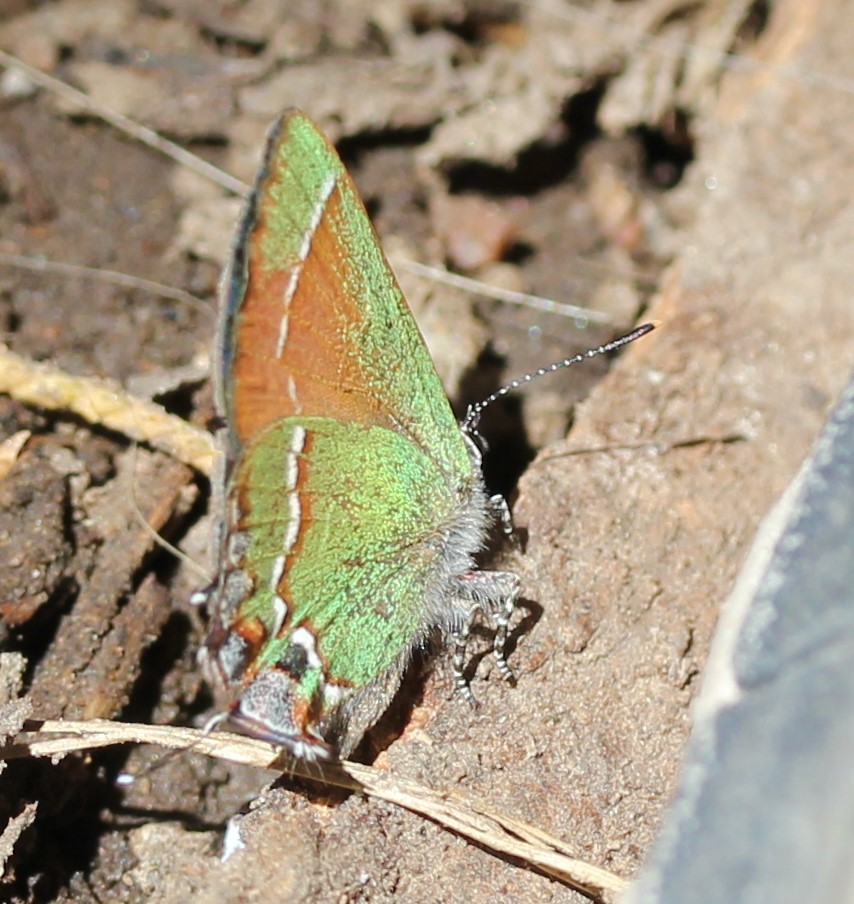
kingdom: Animalia
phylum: Arthropoda
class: Insecta
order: Lepidoptera
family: Lycaenidae
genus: Mitoura
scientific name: Mitoura siva
